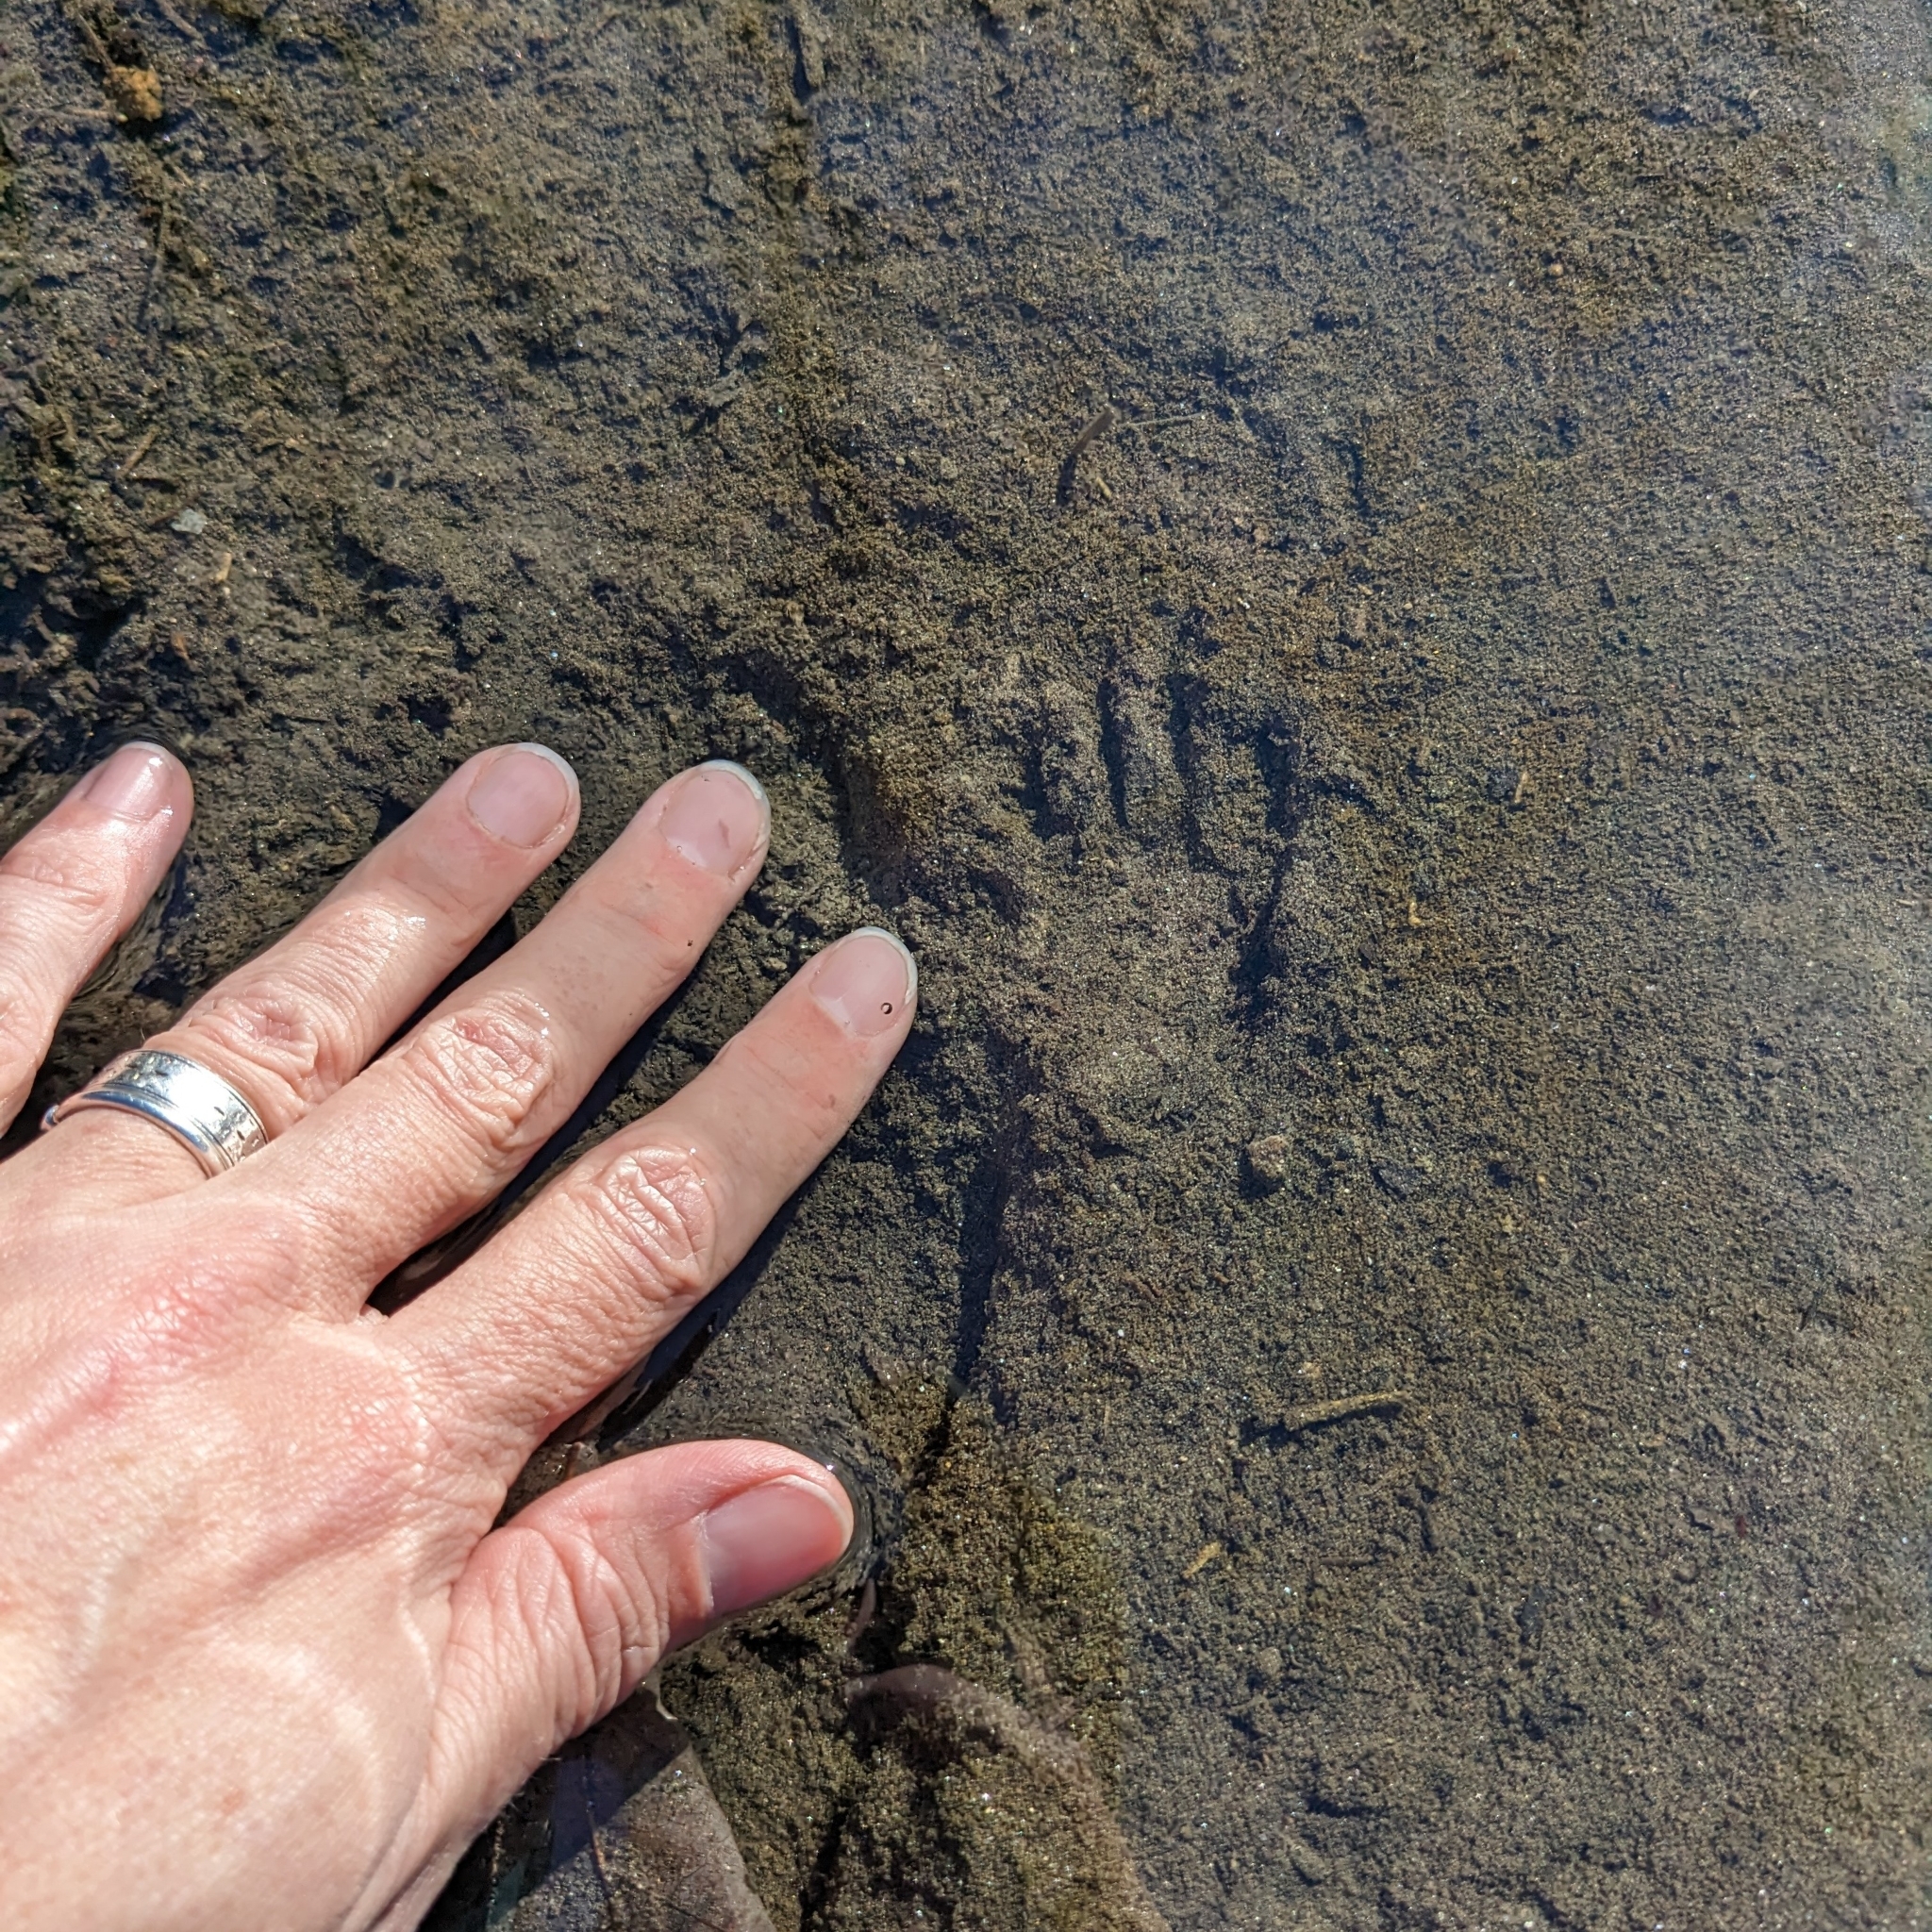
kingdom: Animalia
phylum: Chordata
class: Mammalia
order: Carnivora
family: Procyonidae
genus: Procyon
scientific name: Procyon lotor
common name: Raccoon
